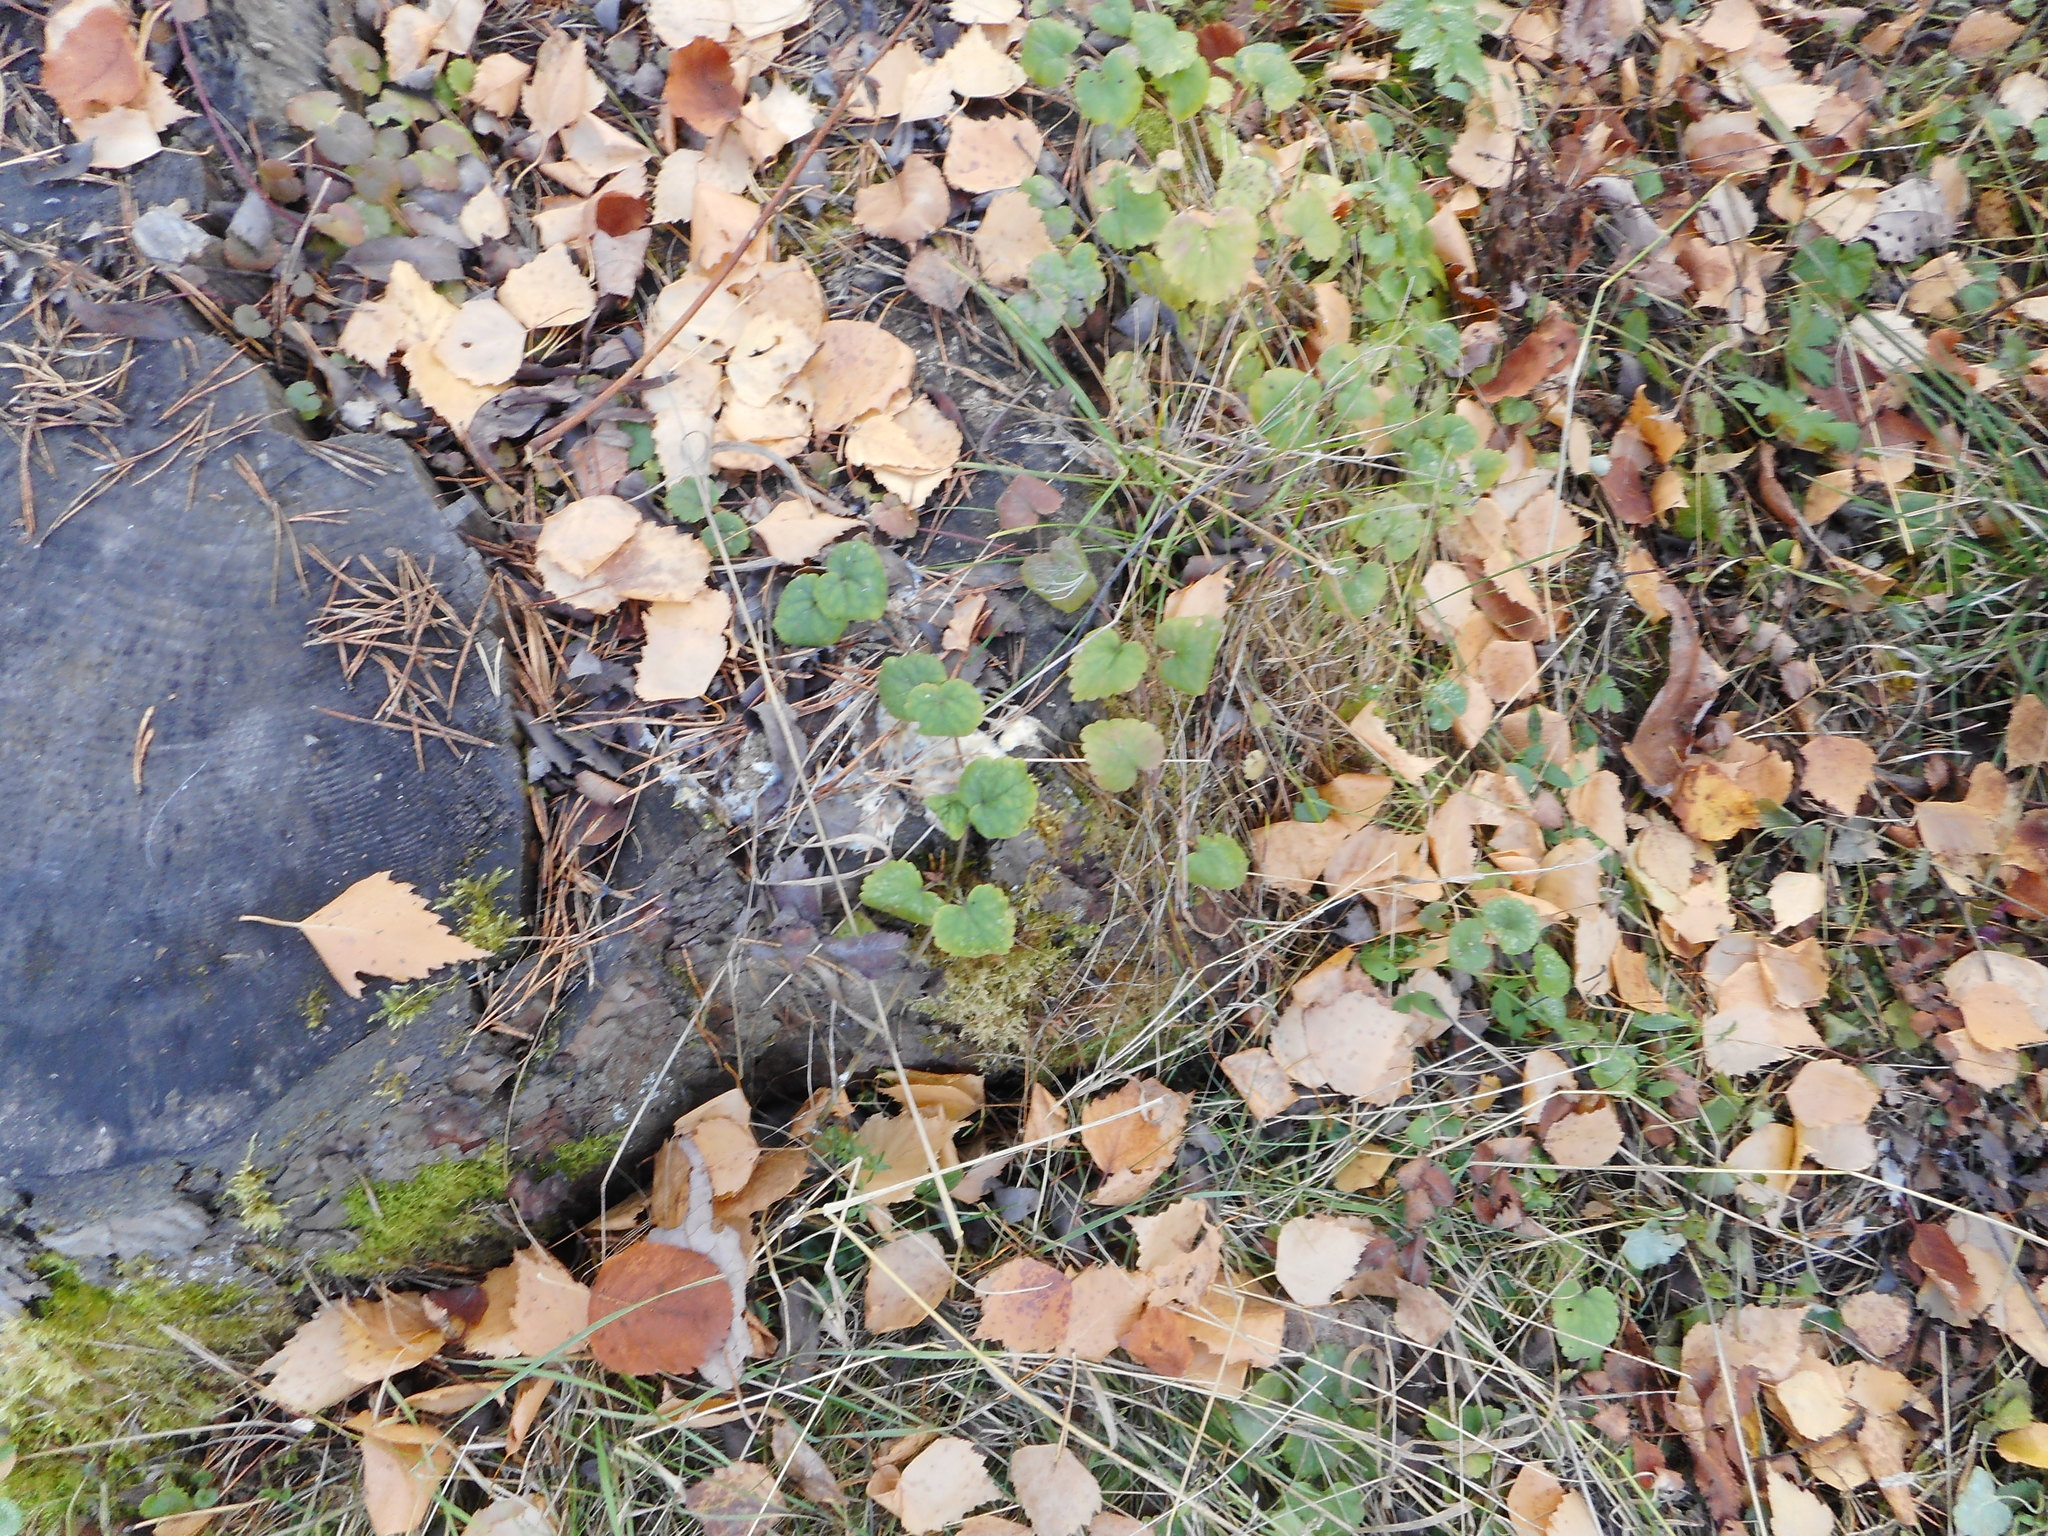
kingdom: Plantae
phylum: Tracheophyta
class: Magnoliopsida
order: Lamiales
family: Lamiaceae
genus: Glechoma
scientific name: Glechoma hederacea
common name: Ground ivy
